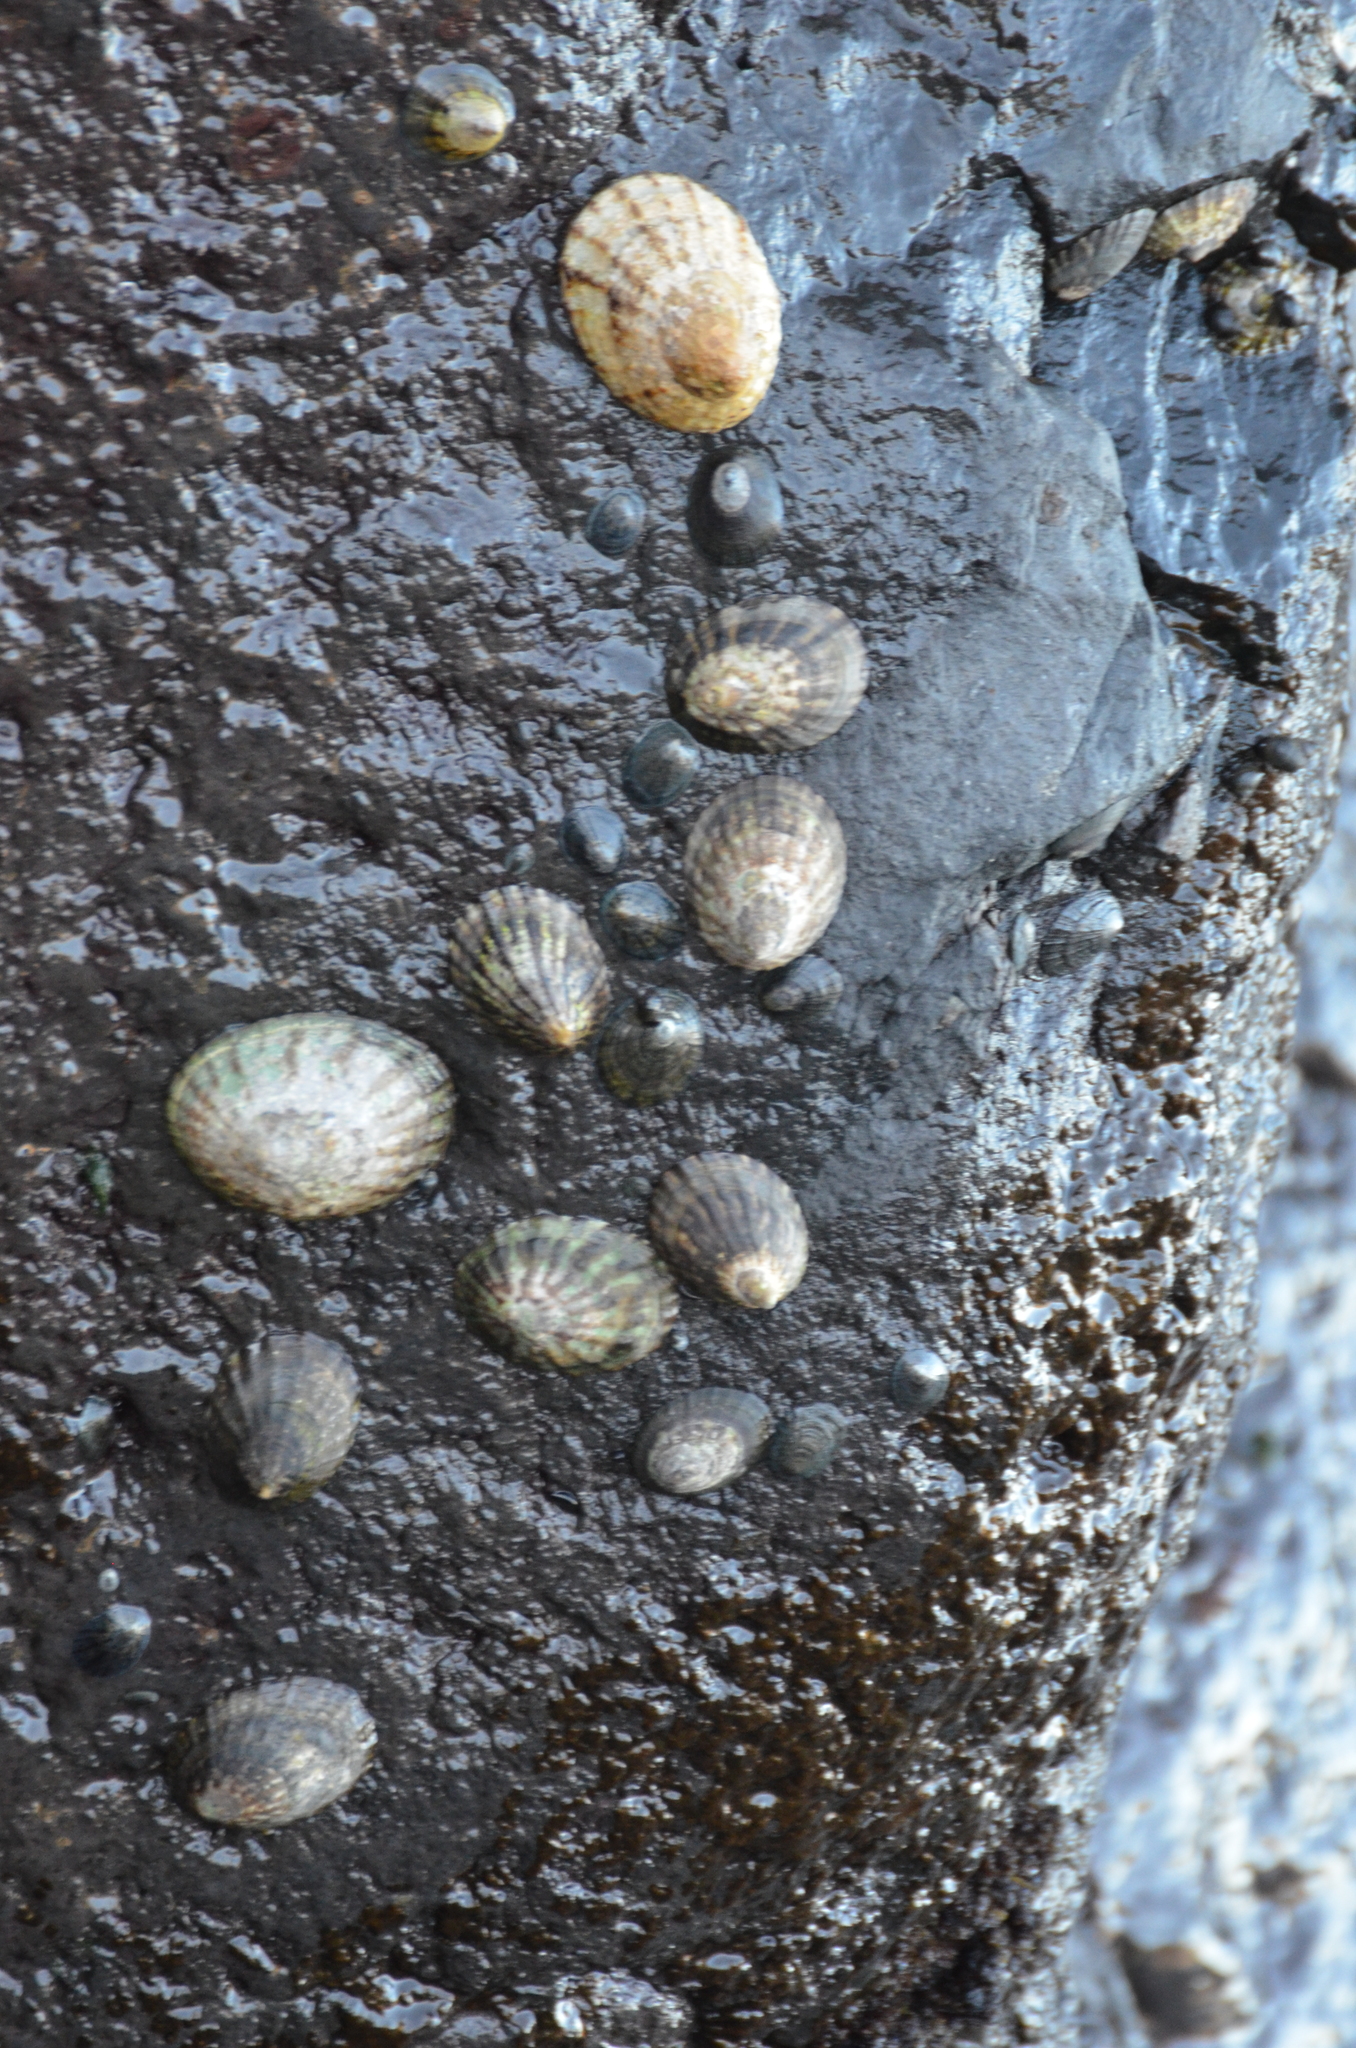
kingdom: Animalia
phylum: Mollusca
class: Gastropoda
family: Nacellidae
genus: Cellana
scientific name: Cellana radians
